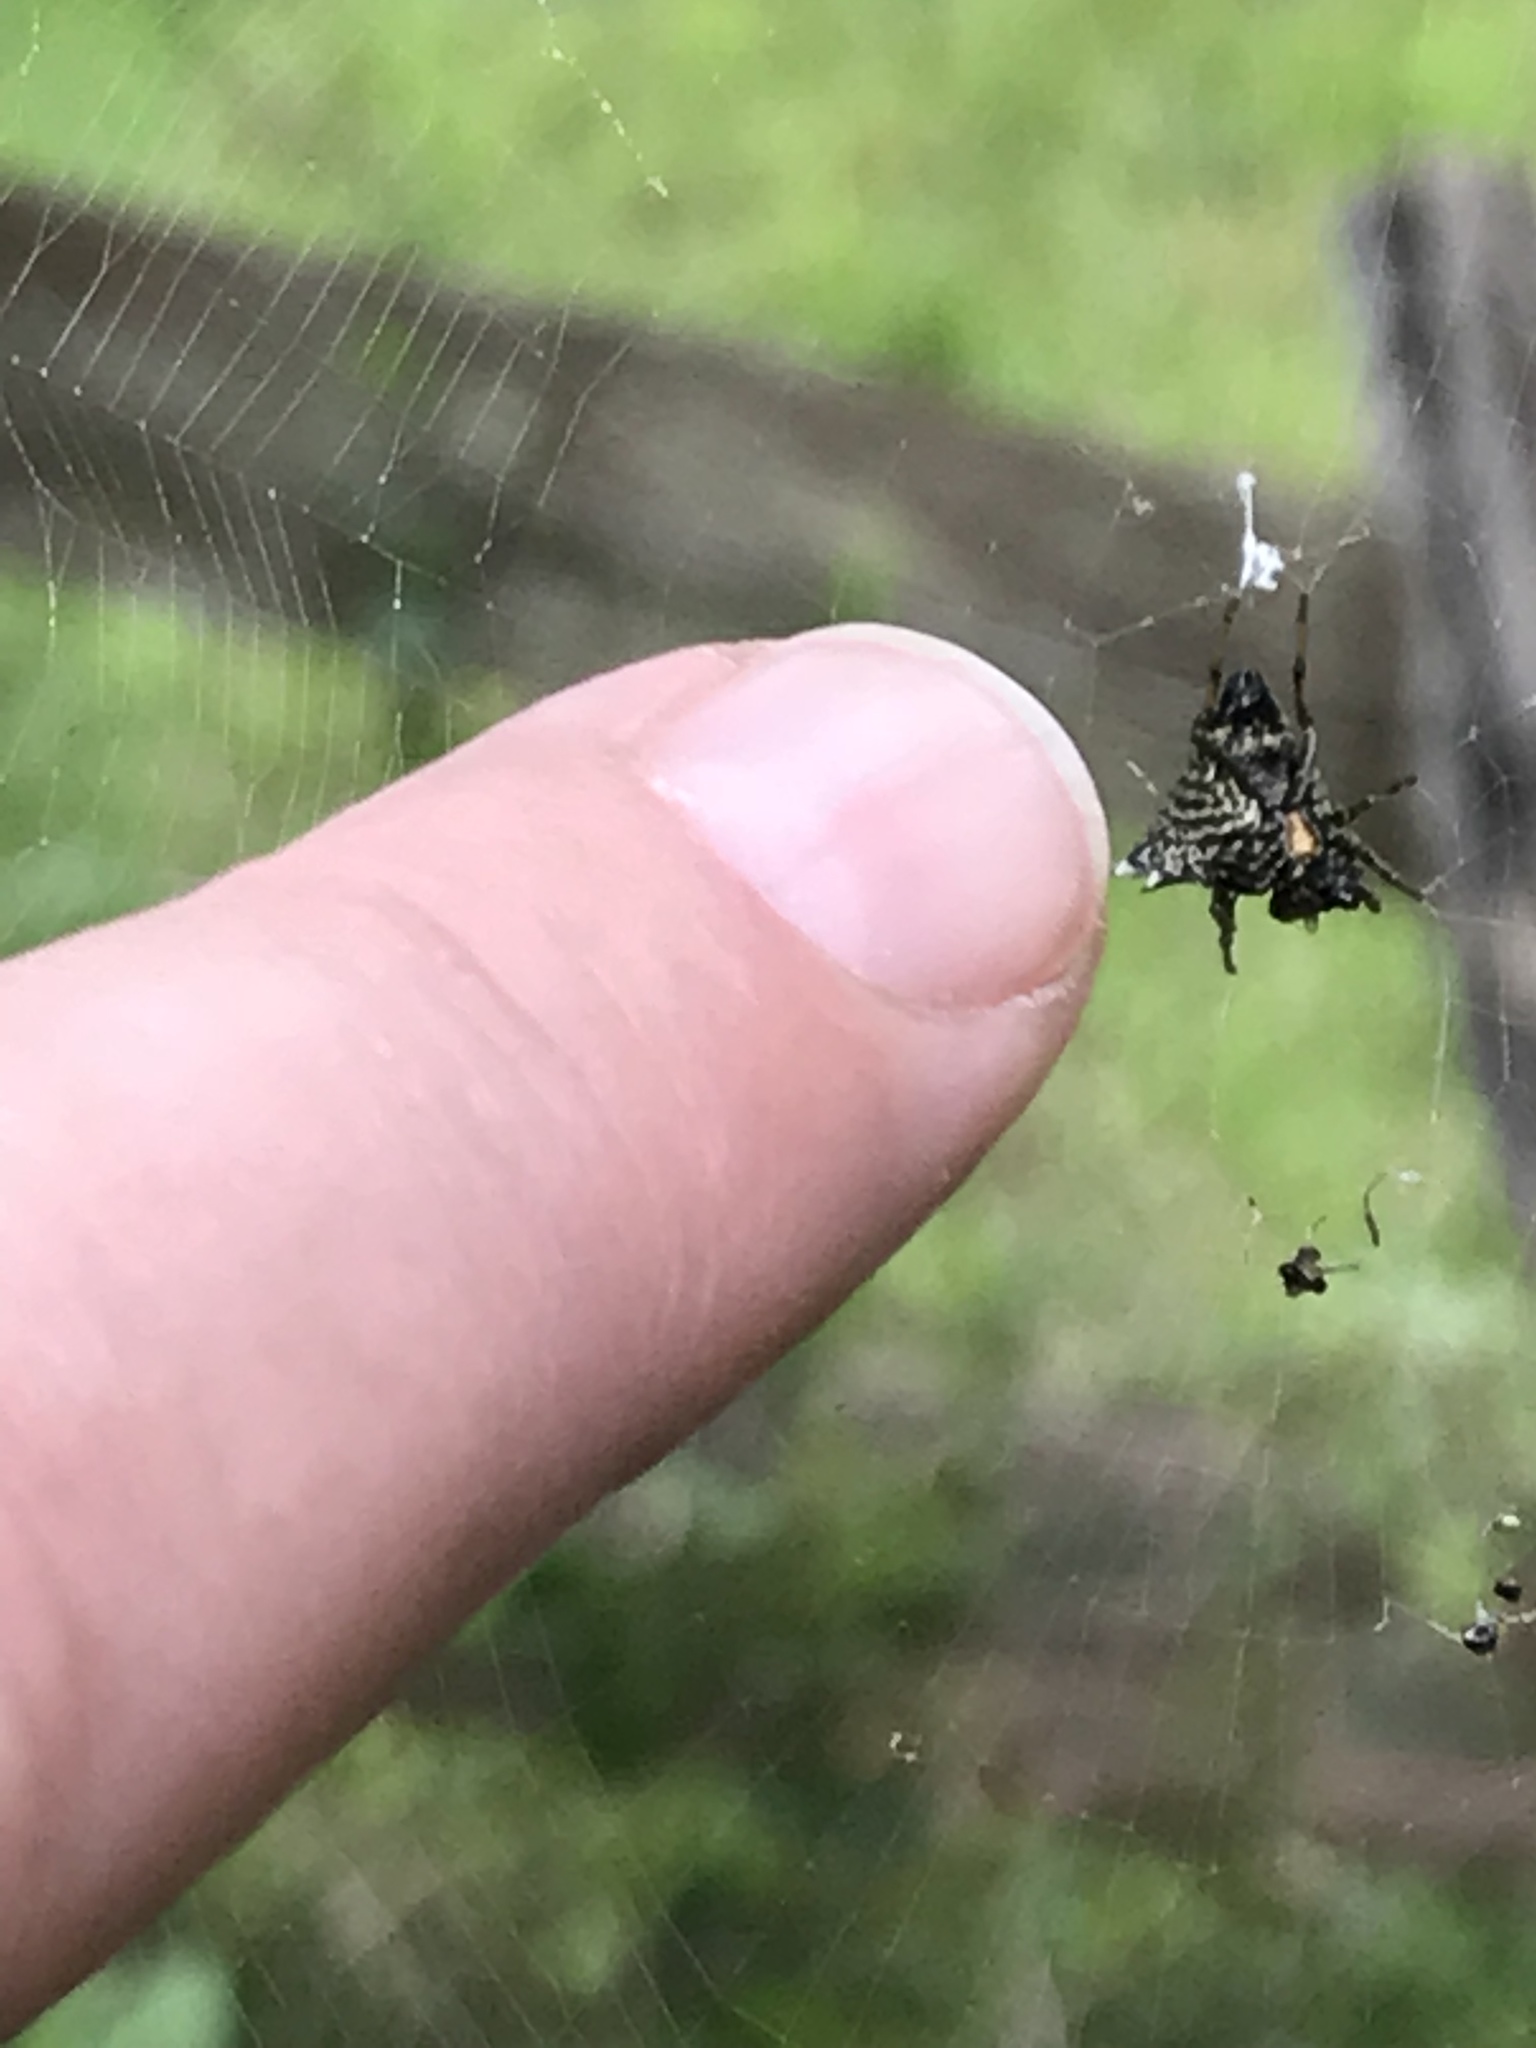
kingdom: Animalia
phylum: Arthropoda
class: Arachnida
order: Araneae
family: Araneidae
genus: Micrathena
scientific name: Micrathena gracilis
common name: Orb weavers
